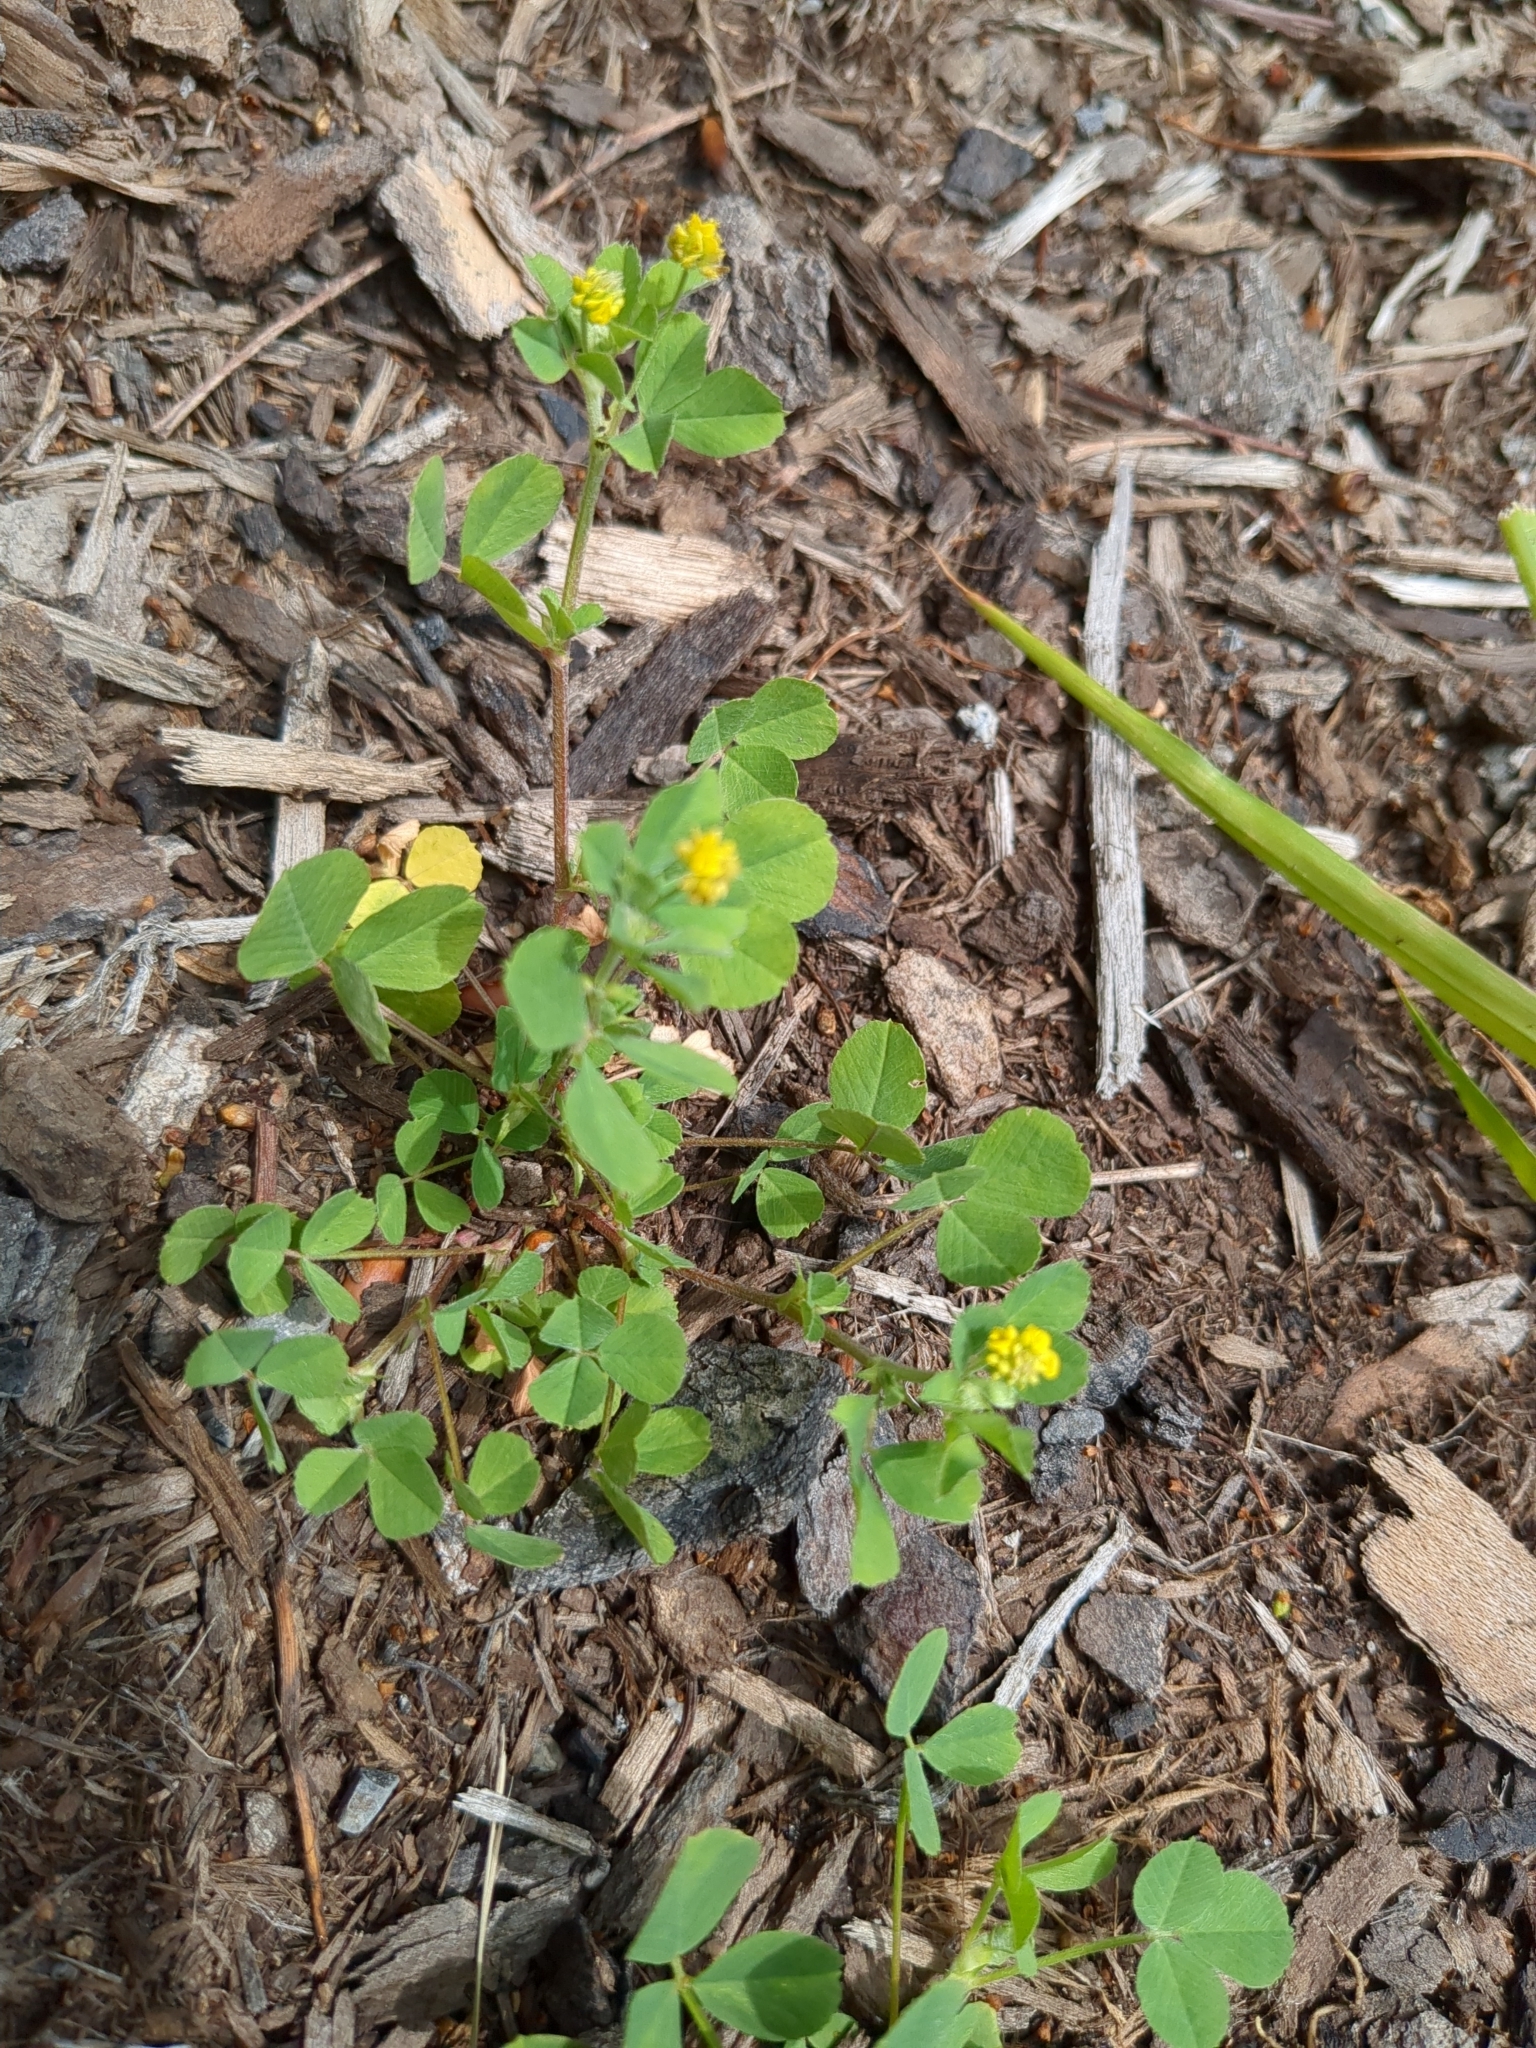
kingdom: Plantae
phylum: Tracheophyta
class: Magnoliopsida
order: Fabales
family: Fabaceae
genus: Medicago
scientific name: Medicago lupulina
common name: Black medick
